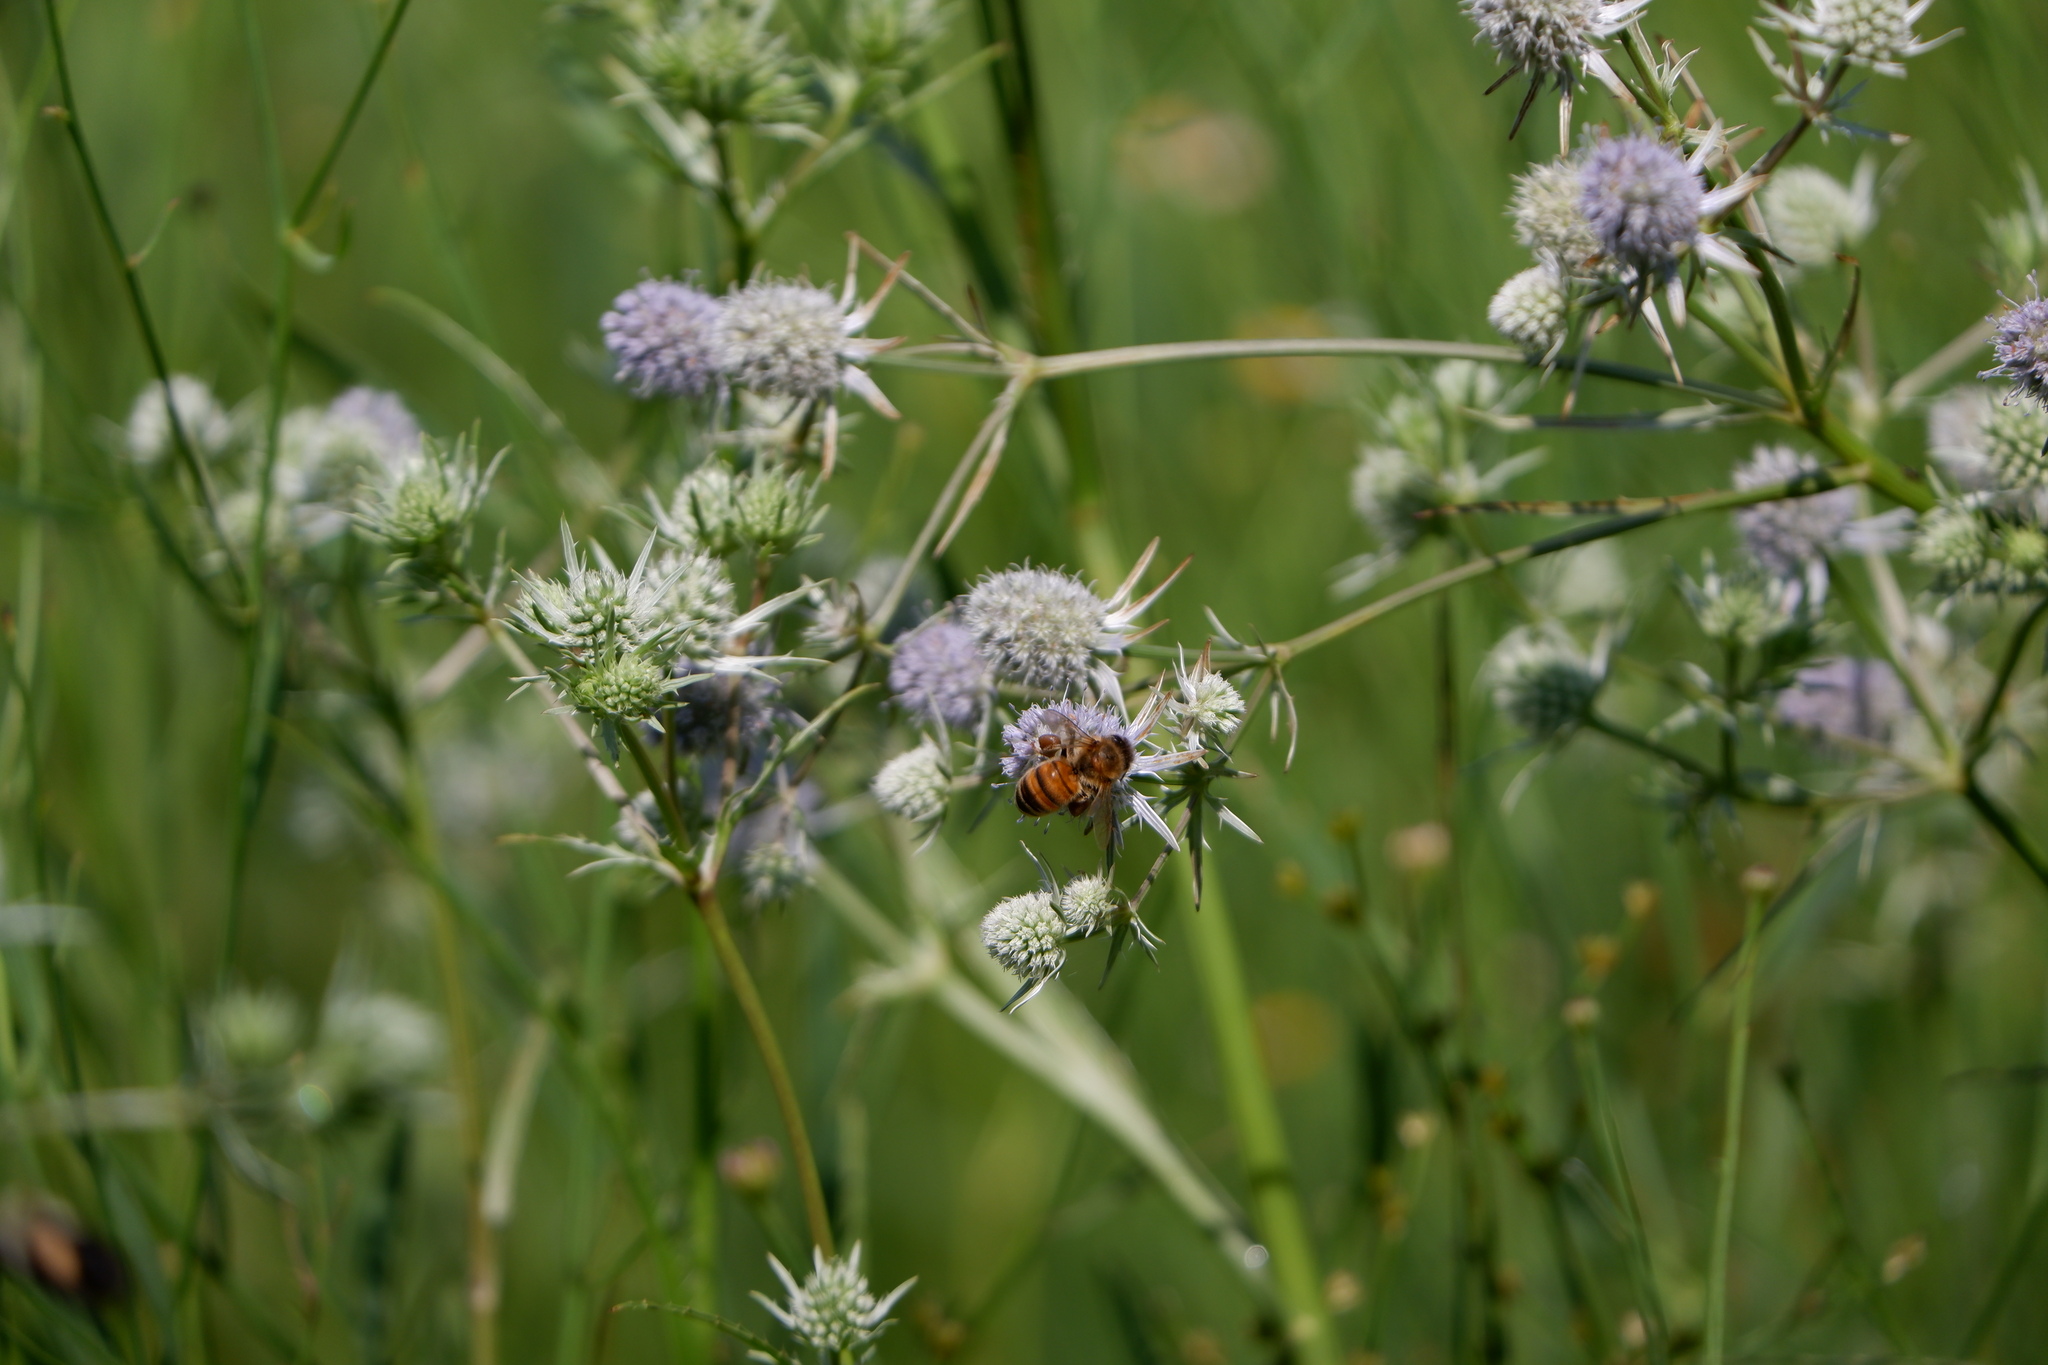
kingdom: Animalia
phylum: Arthropoda
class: Insecta
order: Hymenoptera
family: Apidae
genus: Apis
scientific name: Apis mellifera
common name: Honey bee
